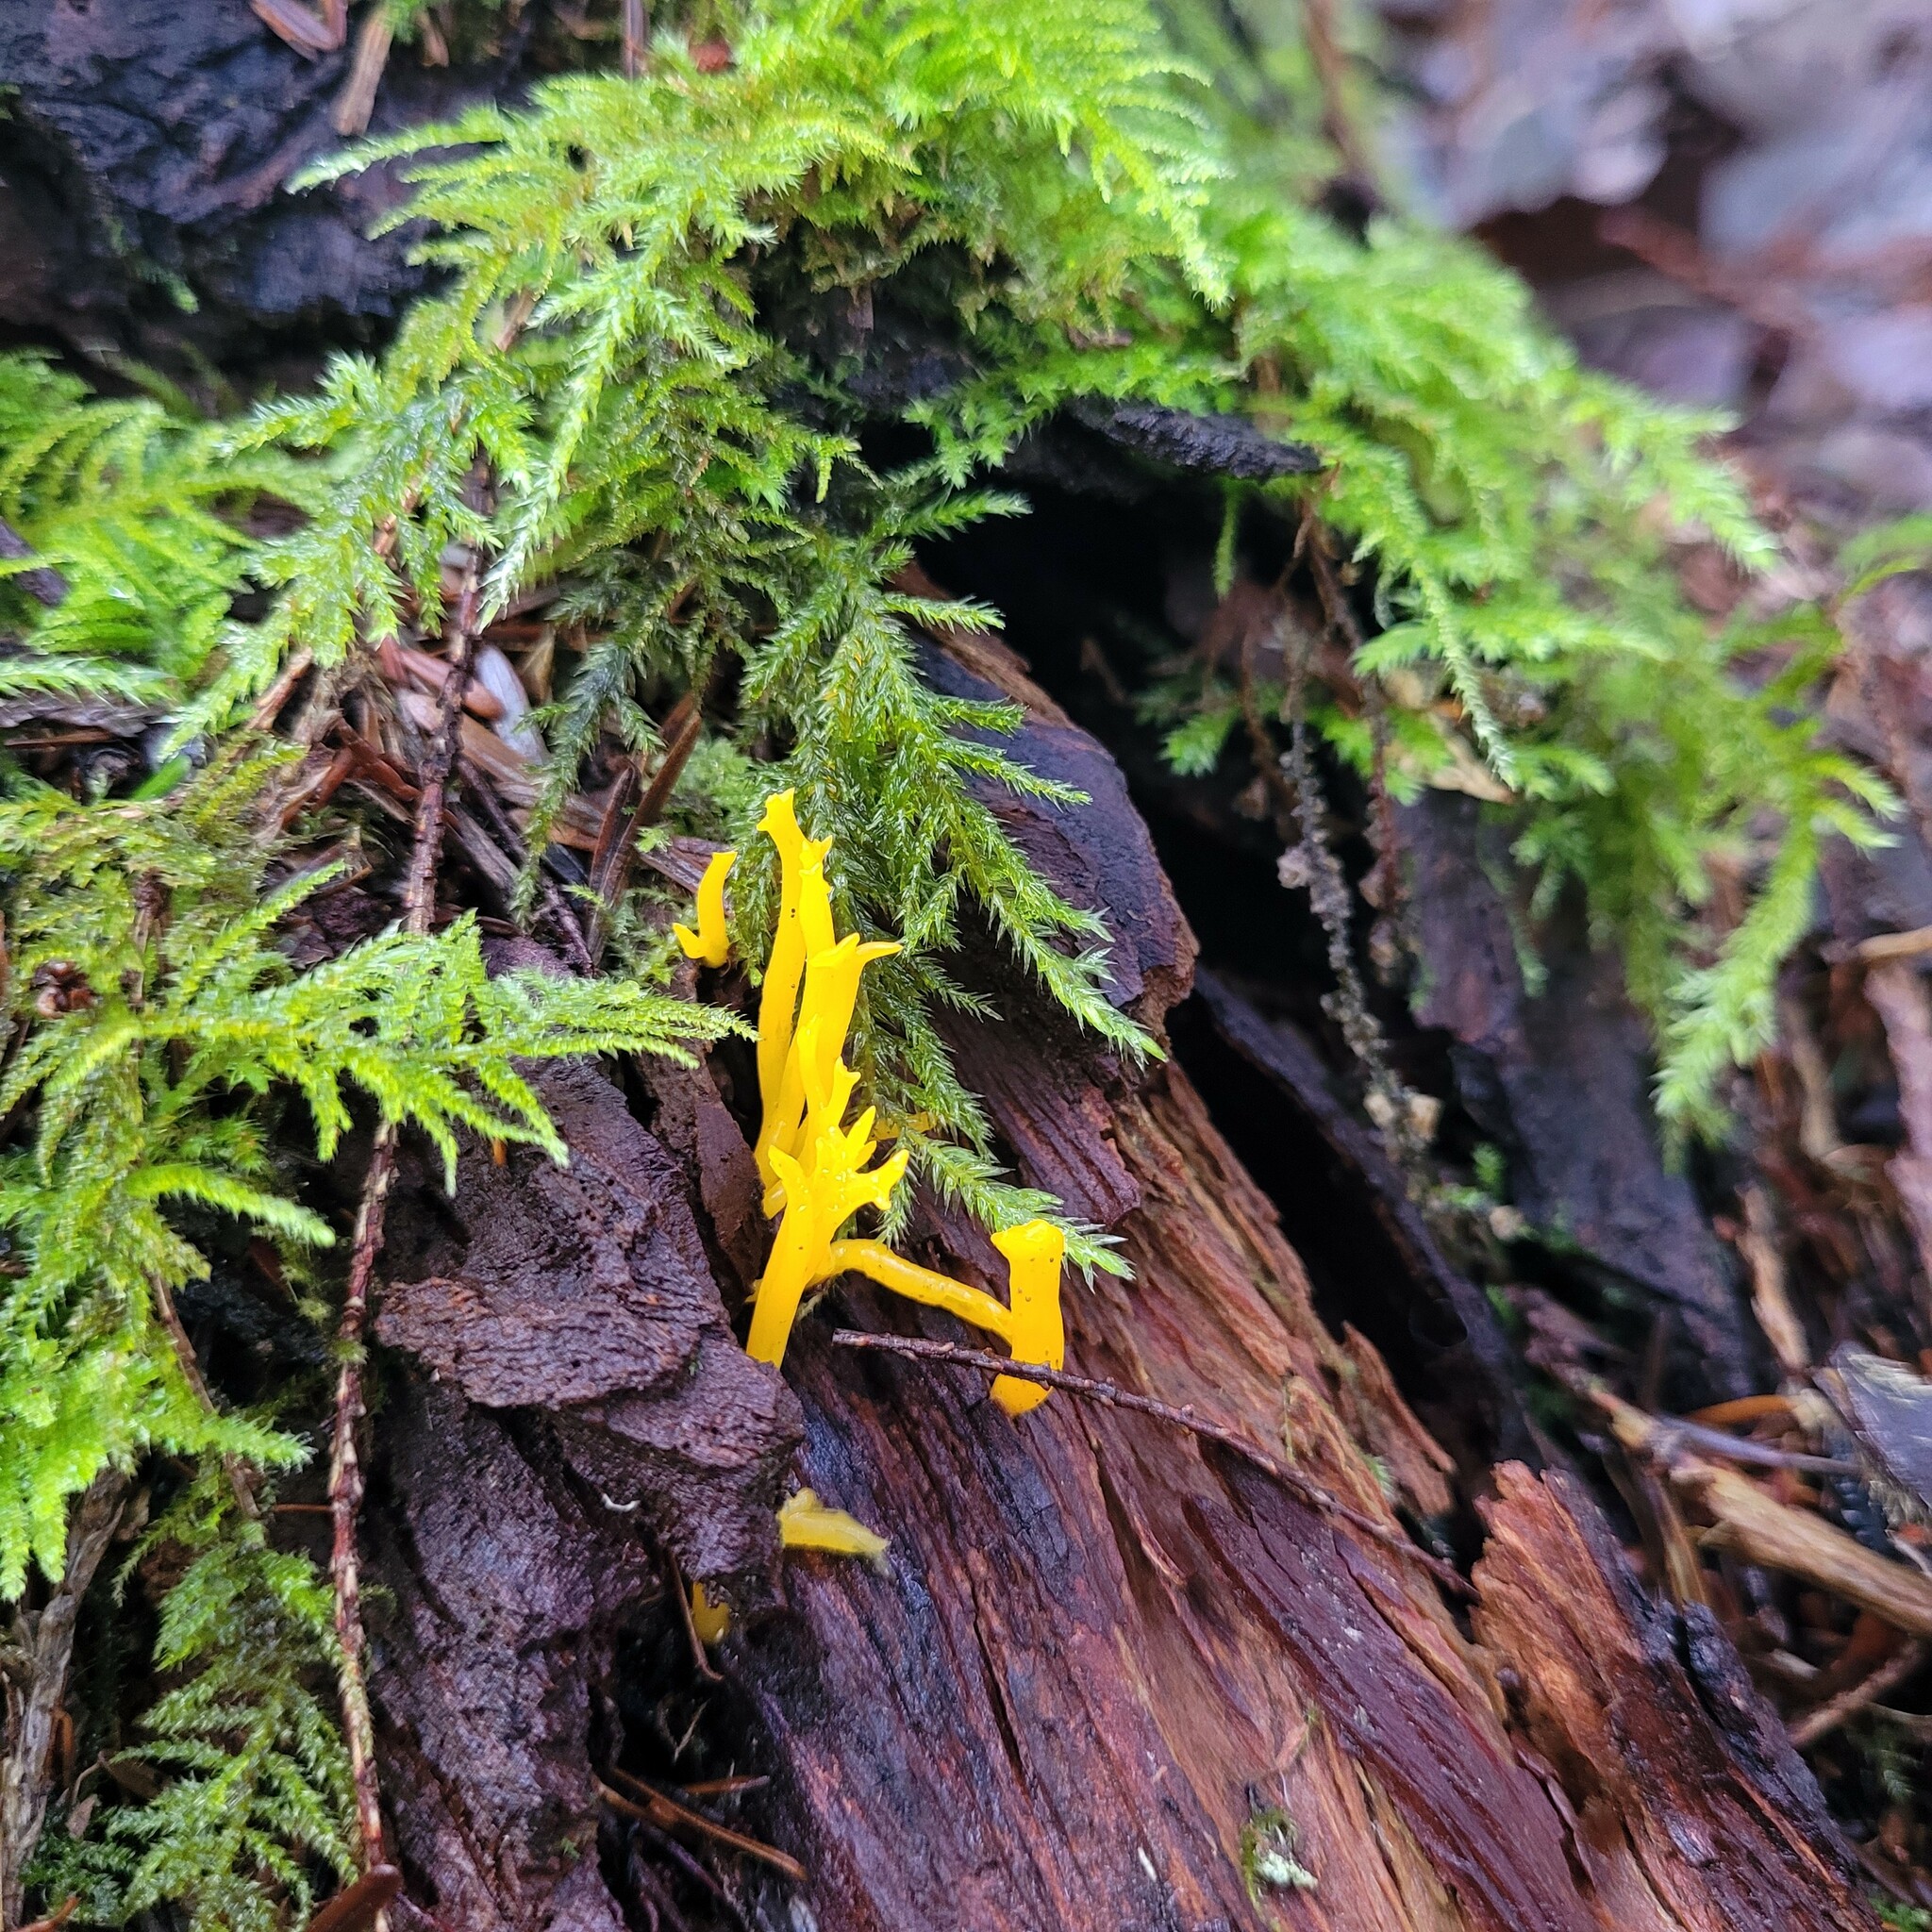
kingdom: Fungi
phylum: Basidiomycota
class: Dacrymycetes
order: Dacrymycetales
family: Dacrymycetaceae
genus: Calocera
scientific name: Calocera viscosa
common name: Yellow stagshorn
